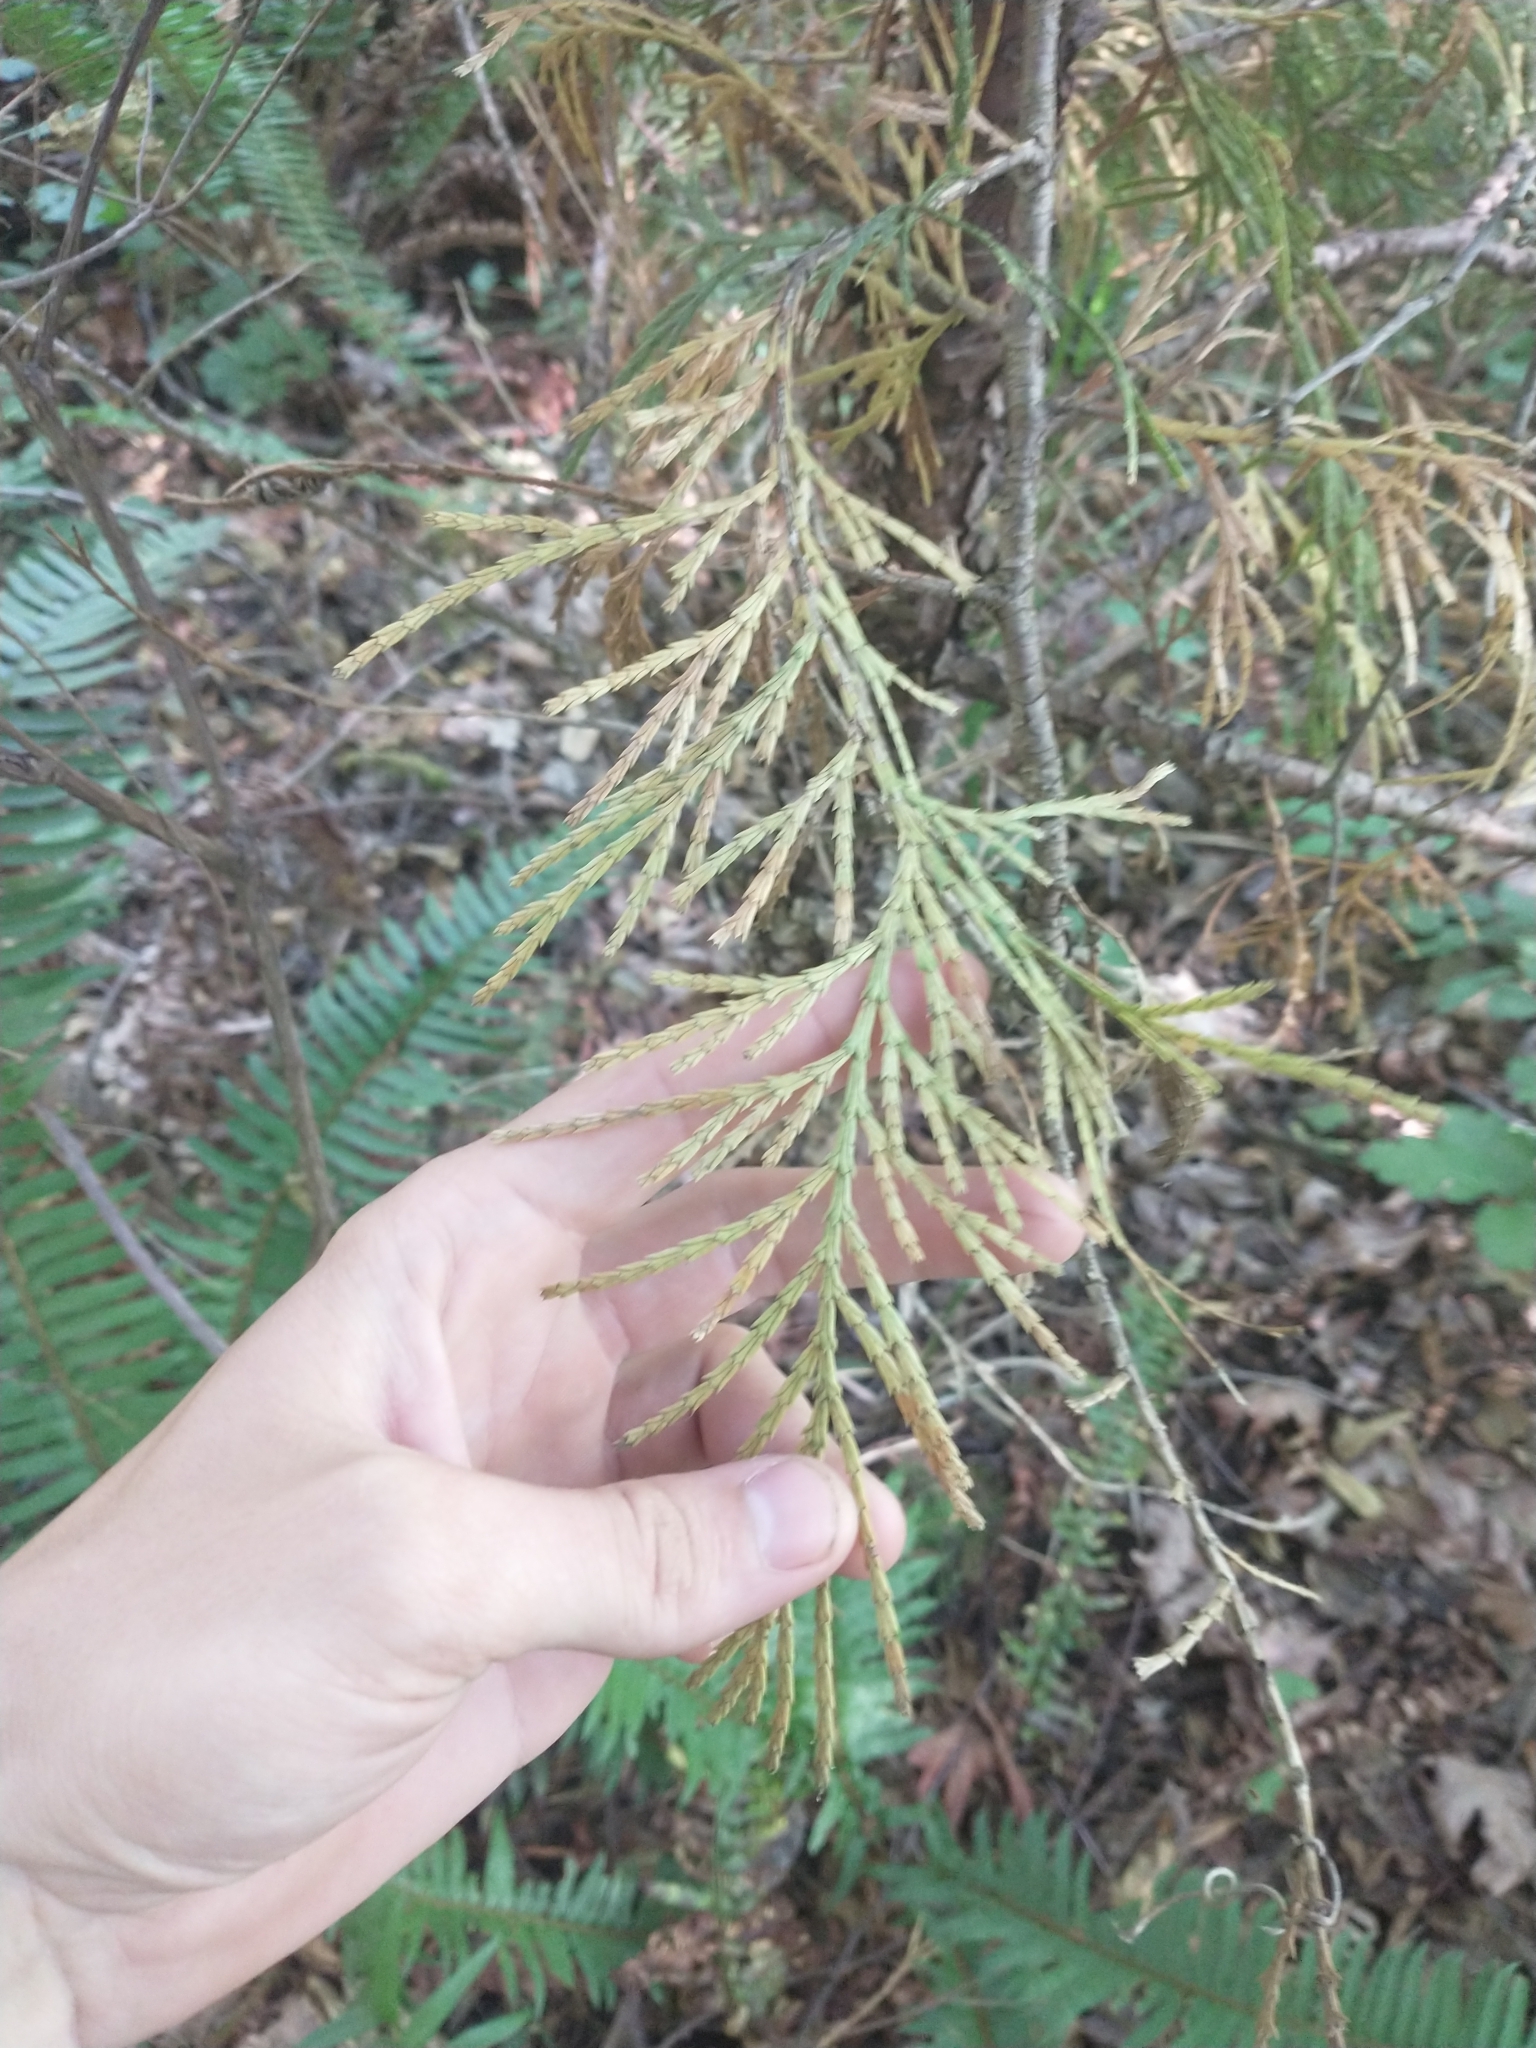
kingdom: Plantae
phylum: Tracheophyta
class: Pinopsida
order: Pinales
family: Cupressaceae
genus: Calocedrus
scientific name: Calocedrus decurrens
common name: Californian incense-cedar
